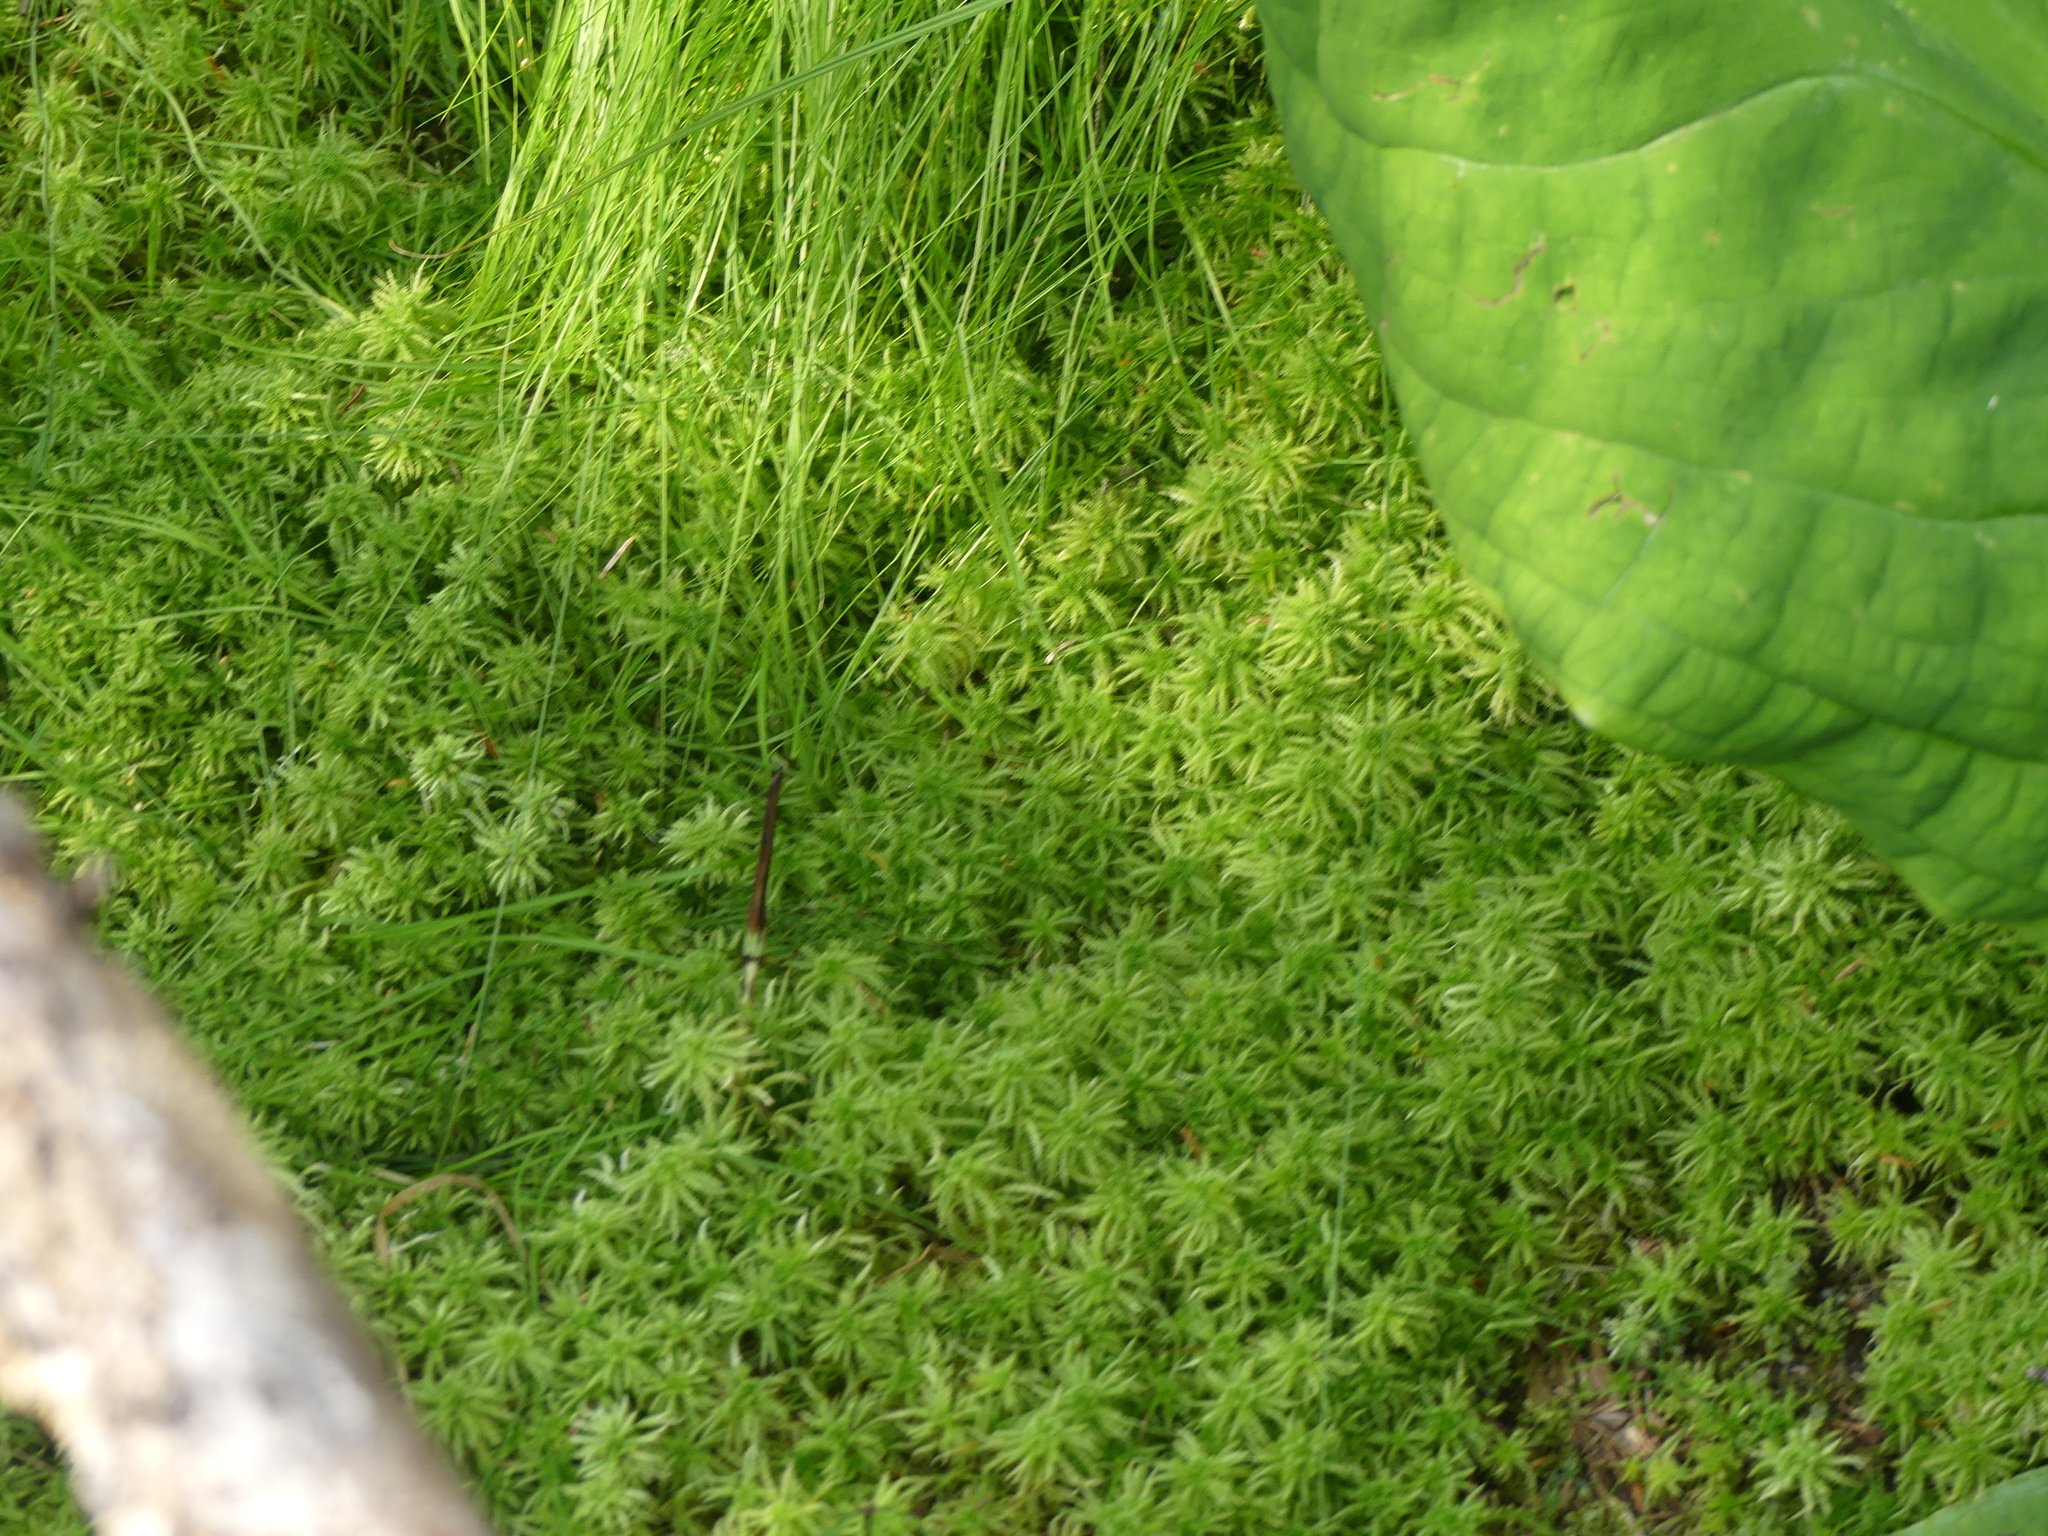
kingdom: Plantae
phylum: Bryophyta
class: Sphagnopsida
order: Sphagnales
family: Sphagnaceae
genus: Sphagnum
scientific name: Sphagnum squarrosum
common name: Shaggy peat moss
